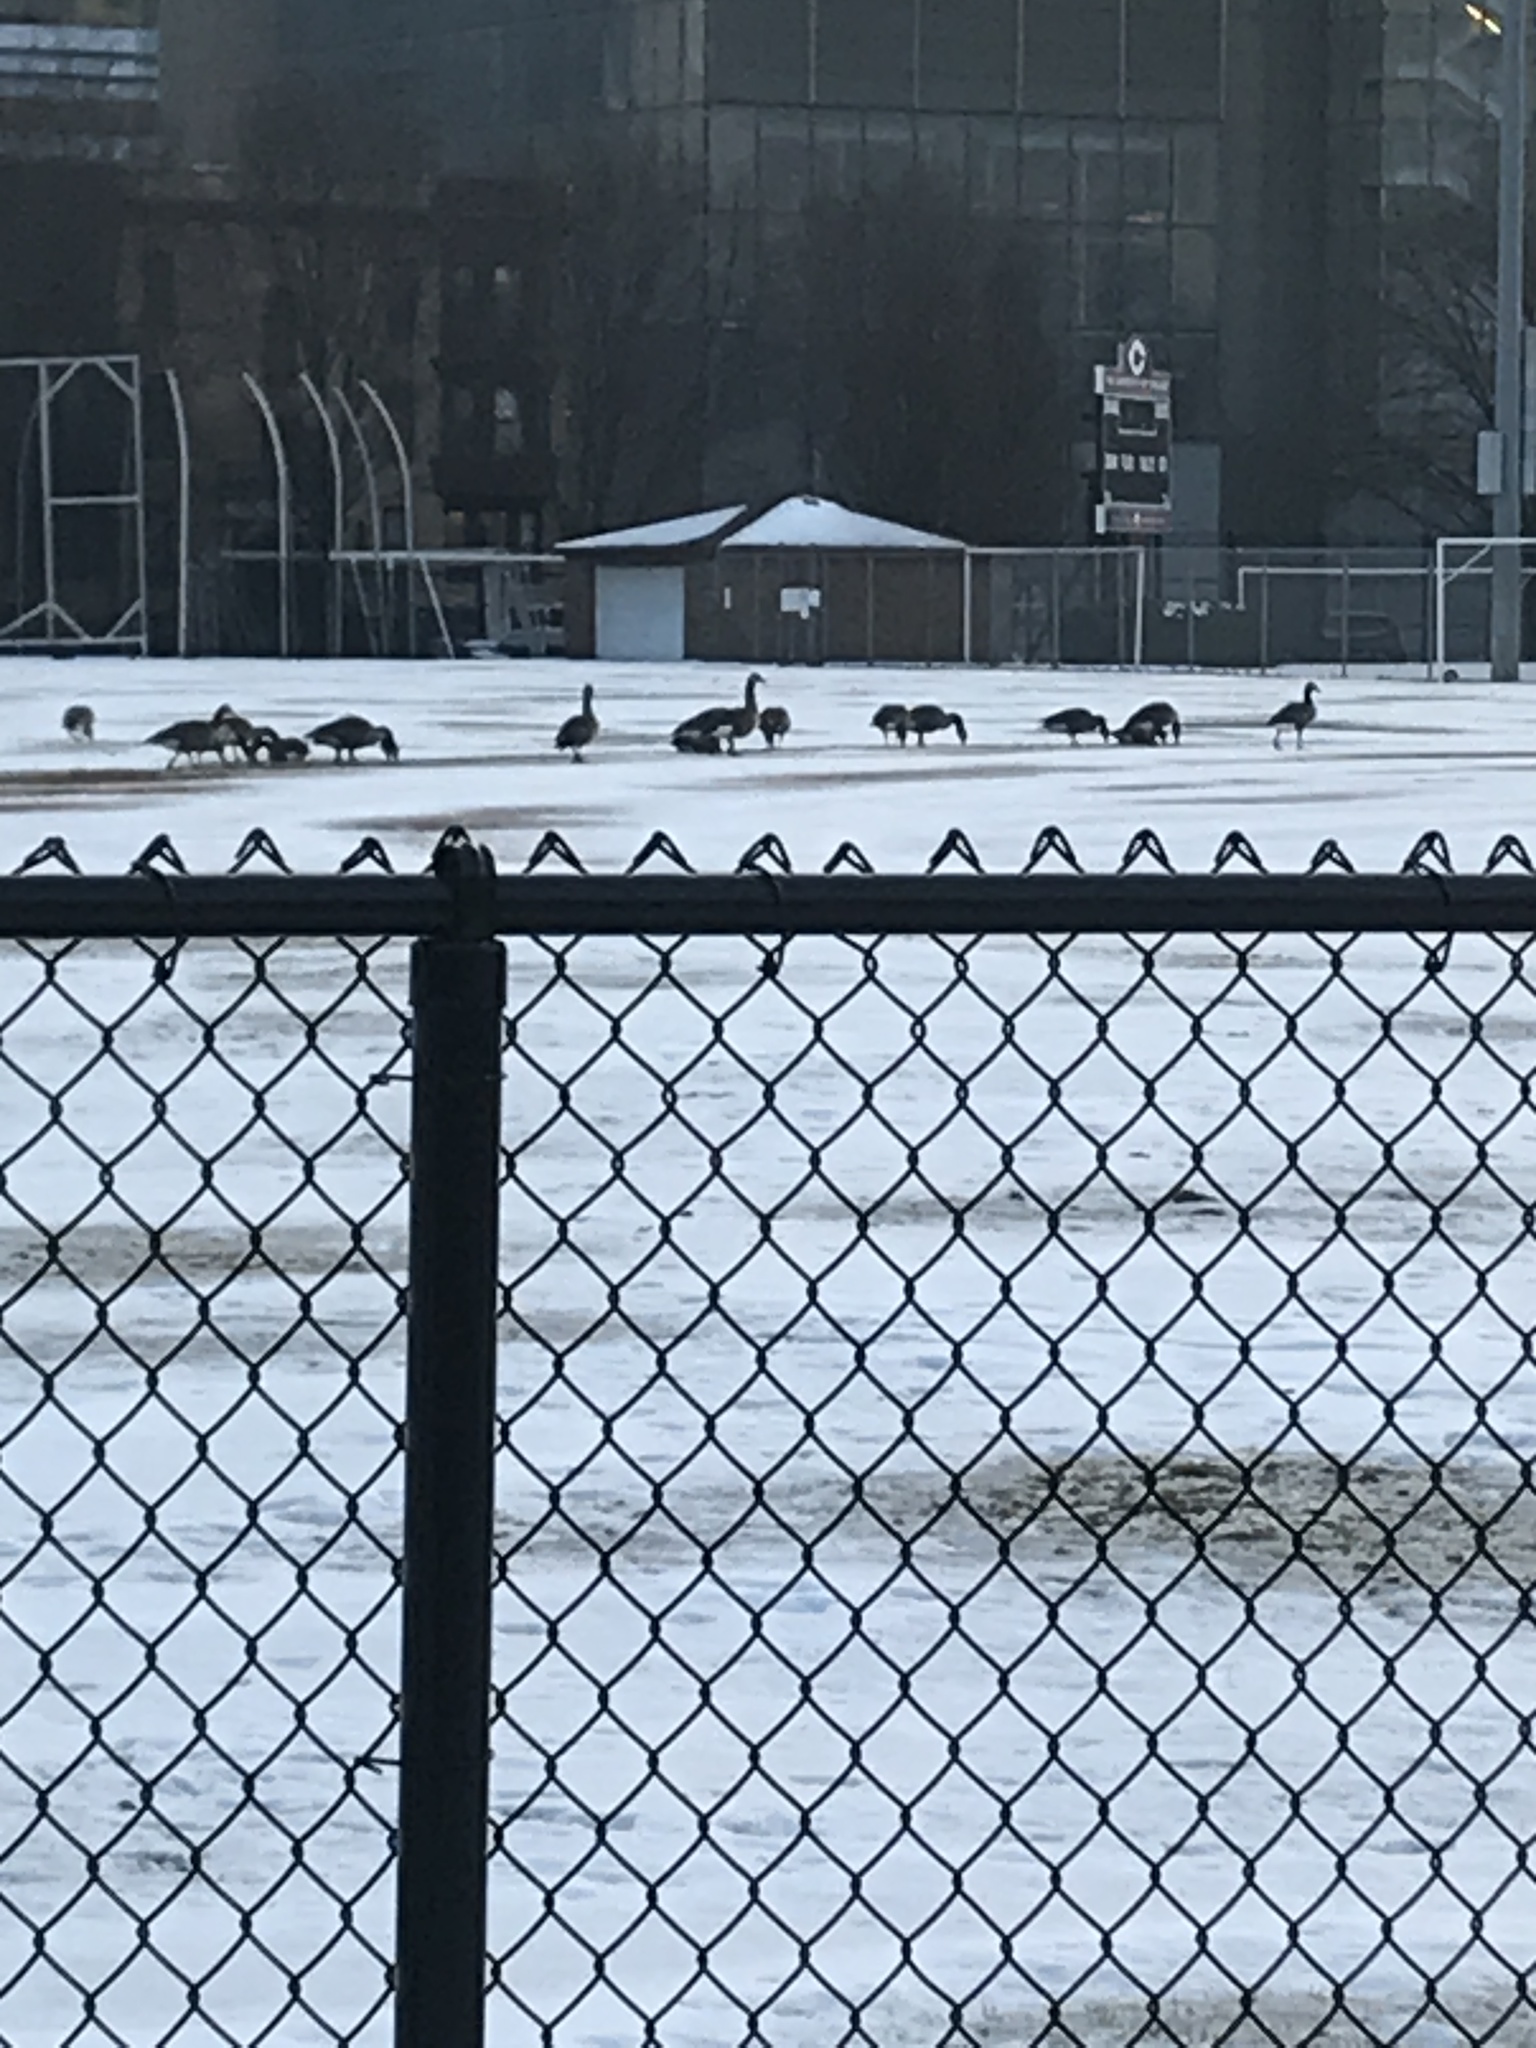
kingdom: Animalia
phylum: Chordata
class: Aves
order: Anseriformes
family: Anatidae
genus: Branta
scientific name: Branta canadensis
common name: Canada goose
